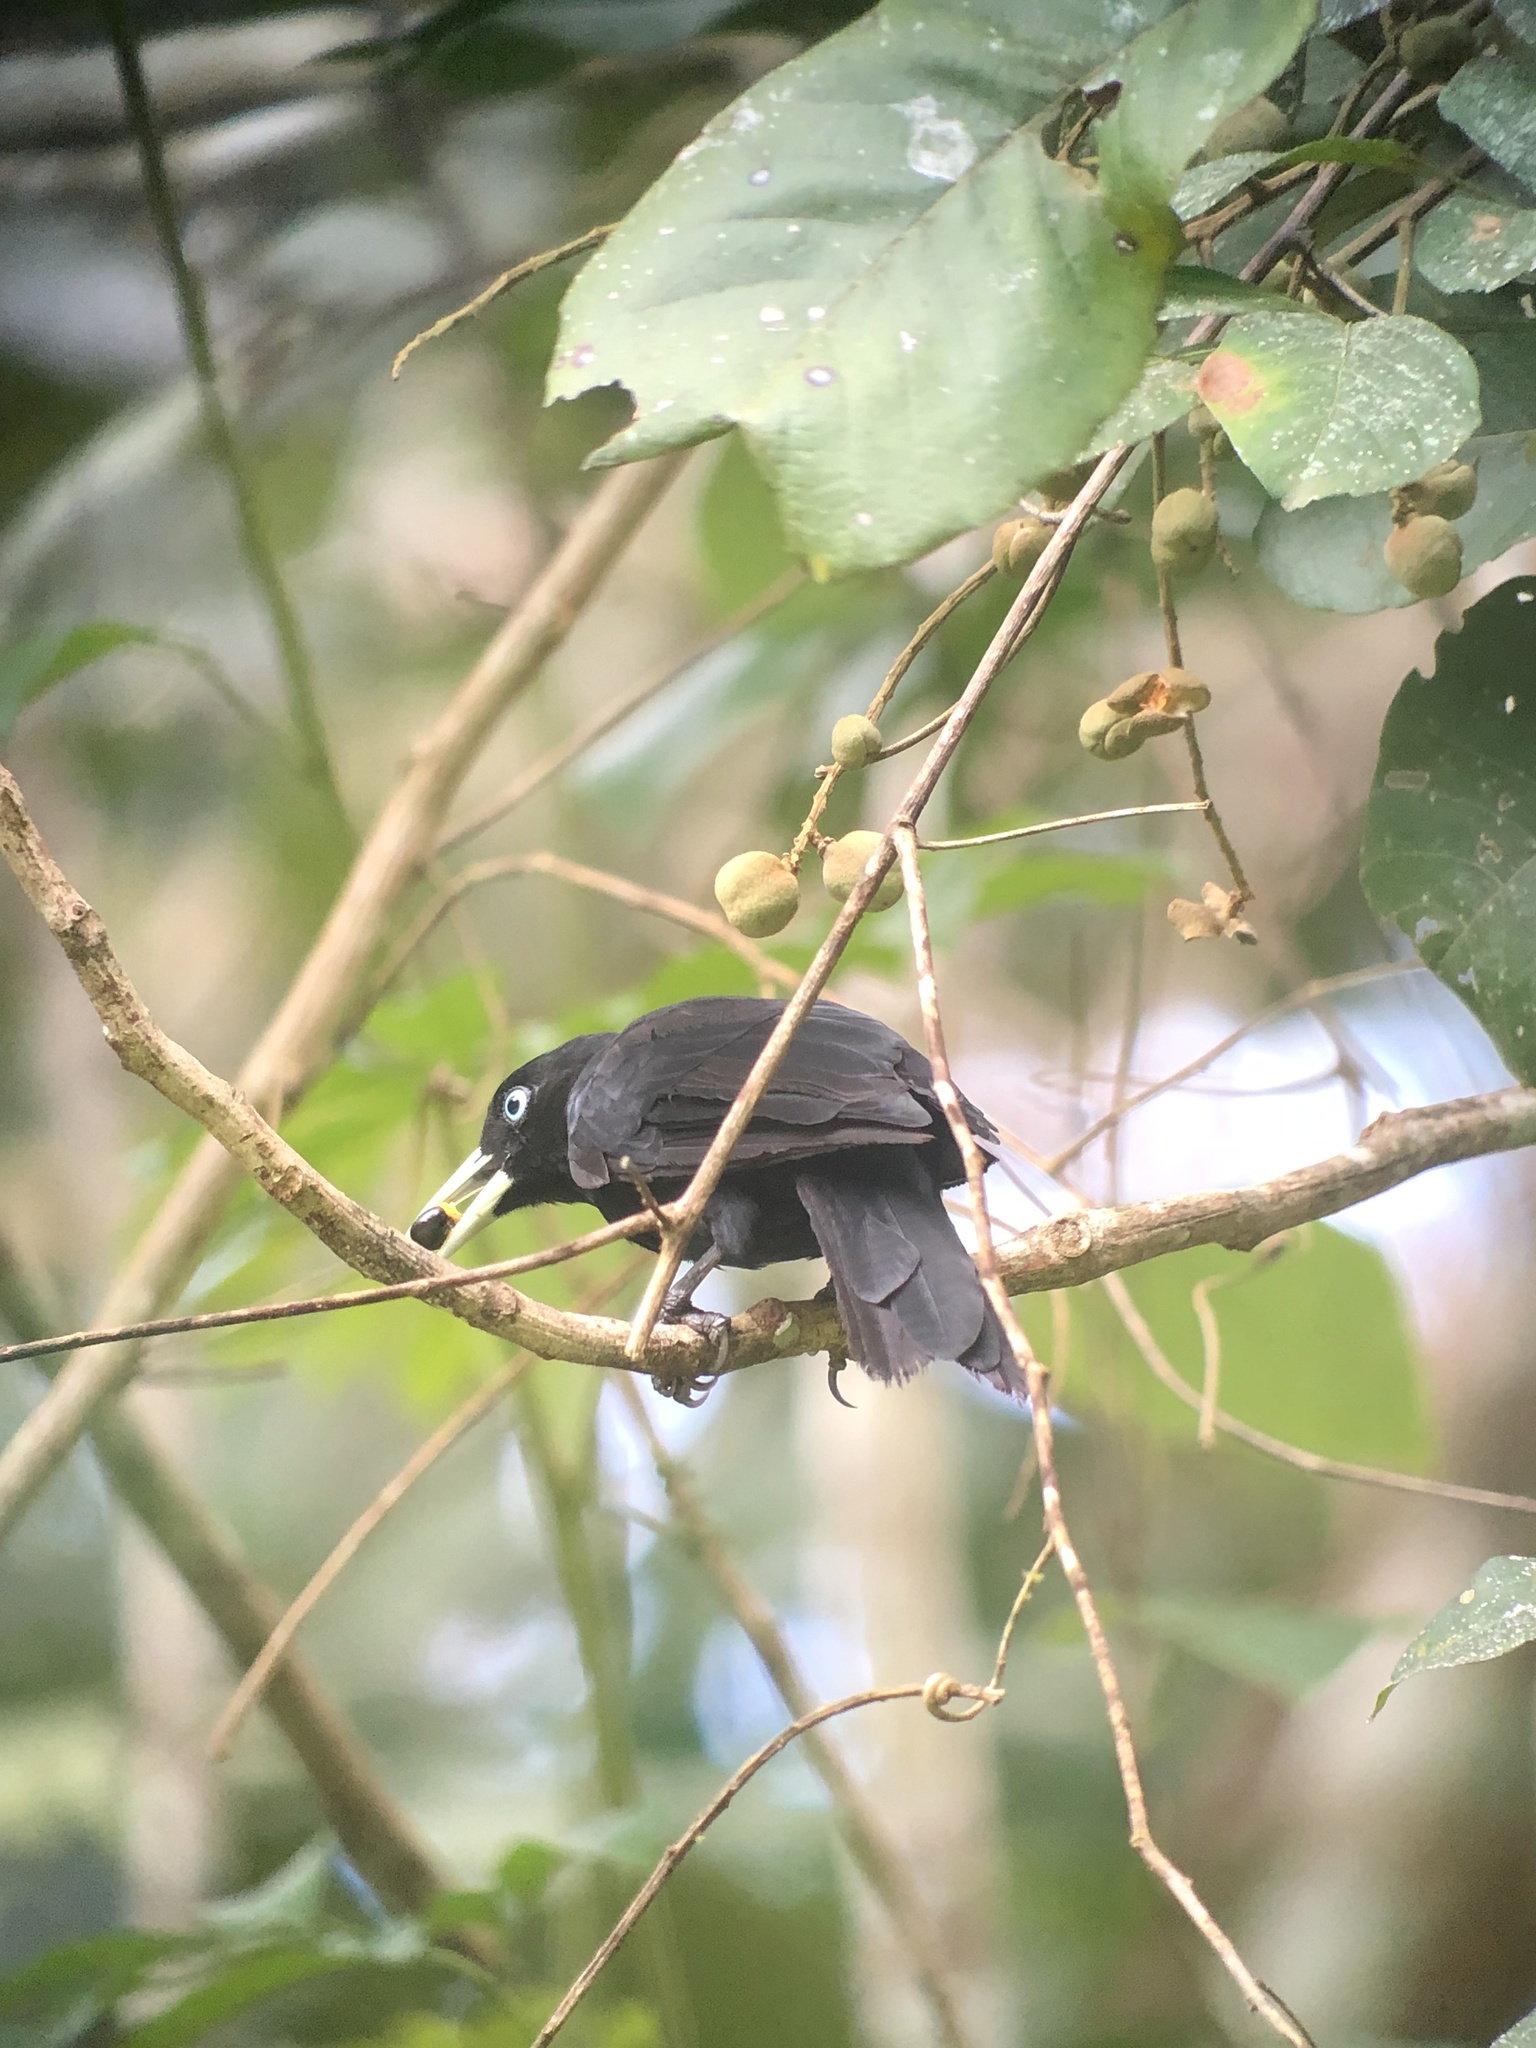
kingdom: Animalia
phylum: Chordata
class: Aves
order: Passeriformes
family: Icteridae
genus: Cacicus
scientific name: Cacicus uropygialis
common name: Scarlet-rumped cacique
